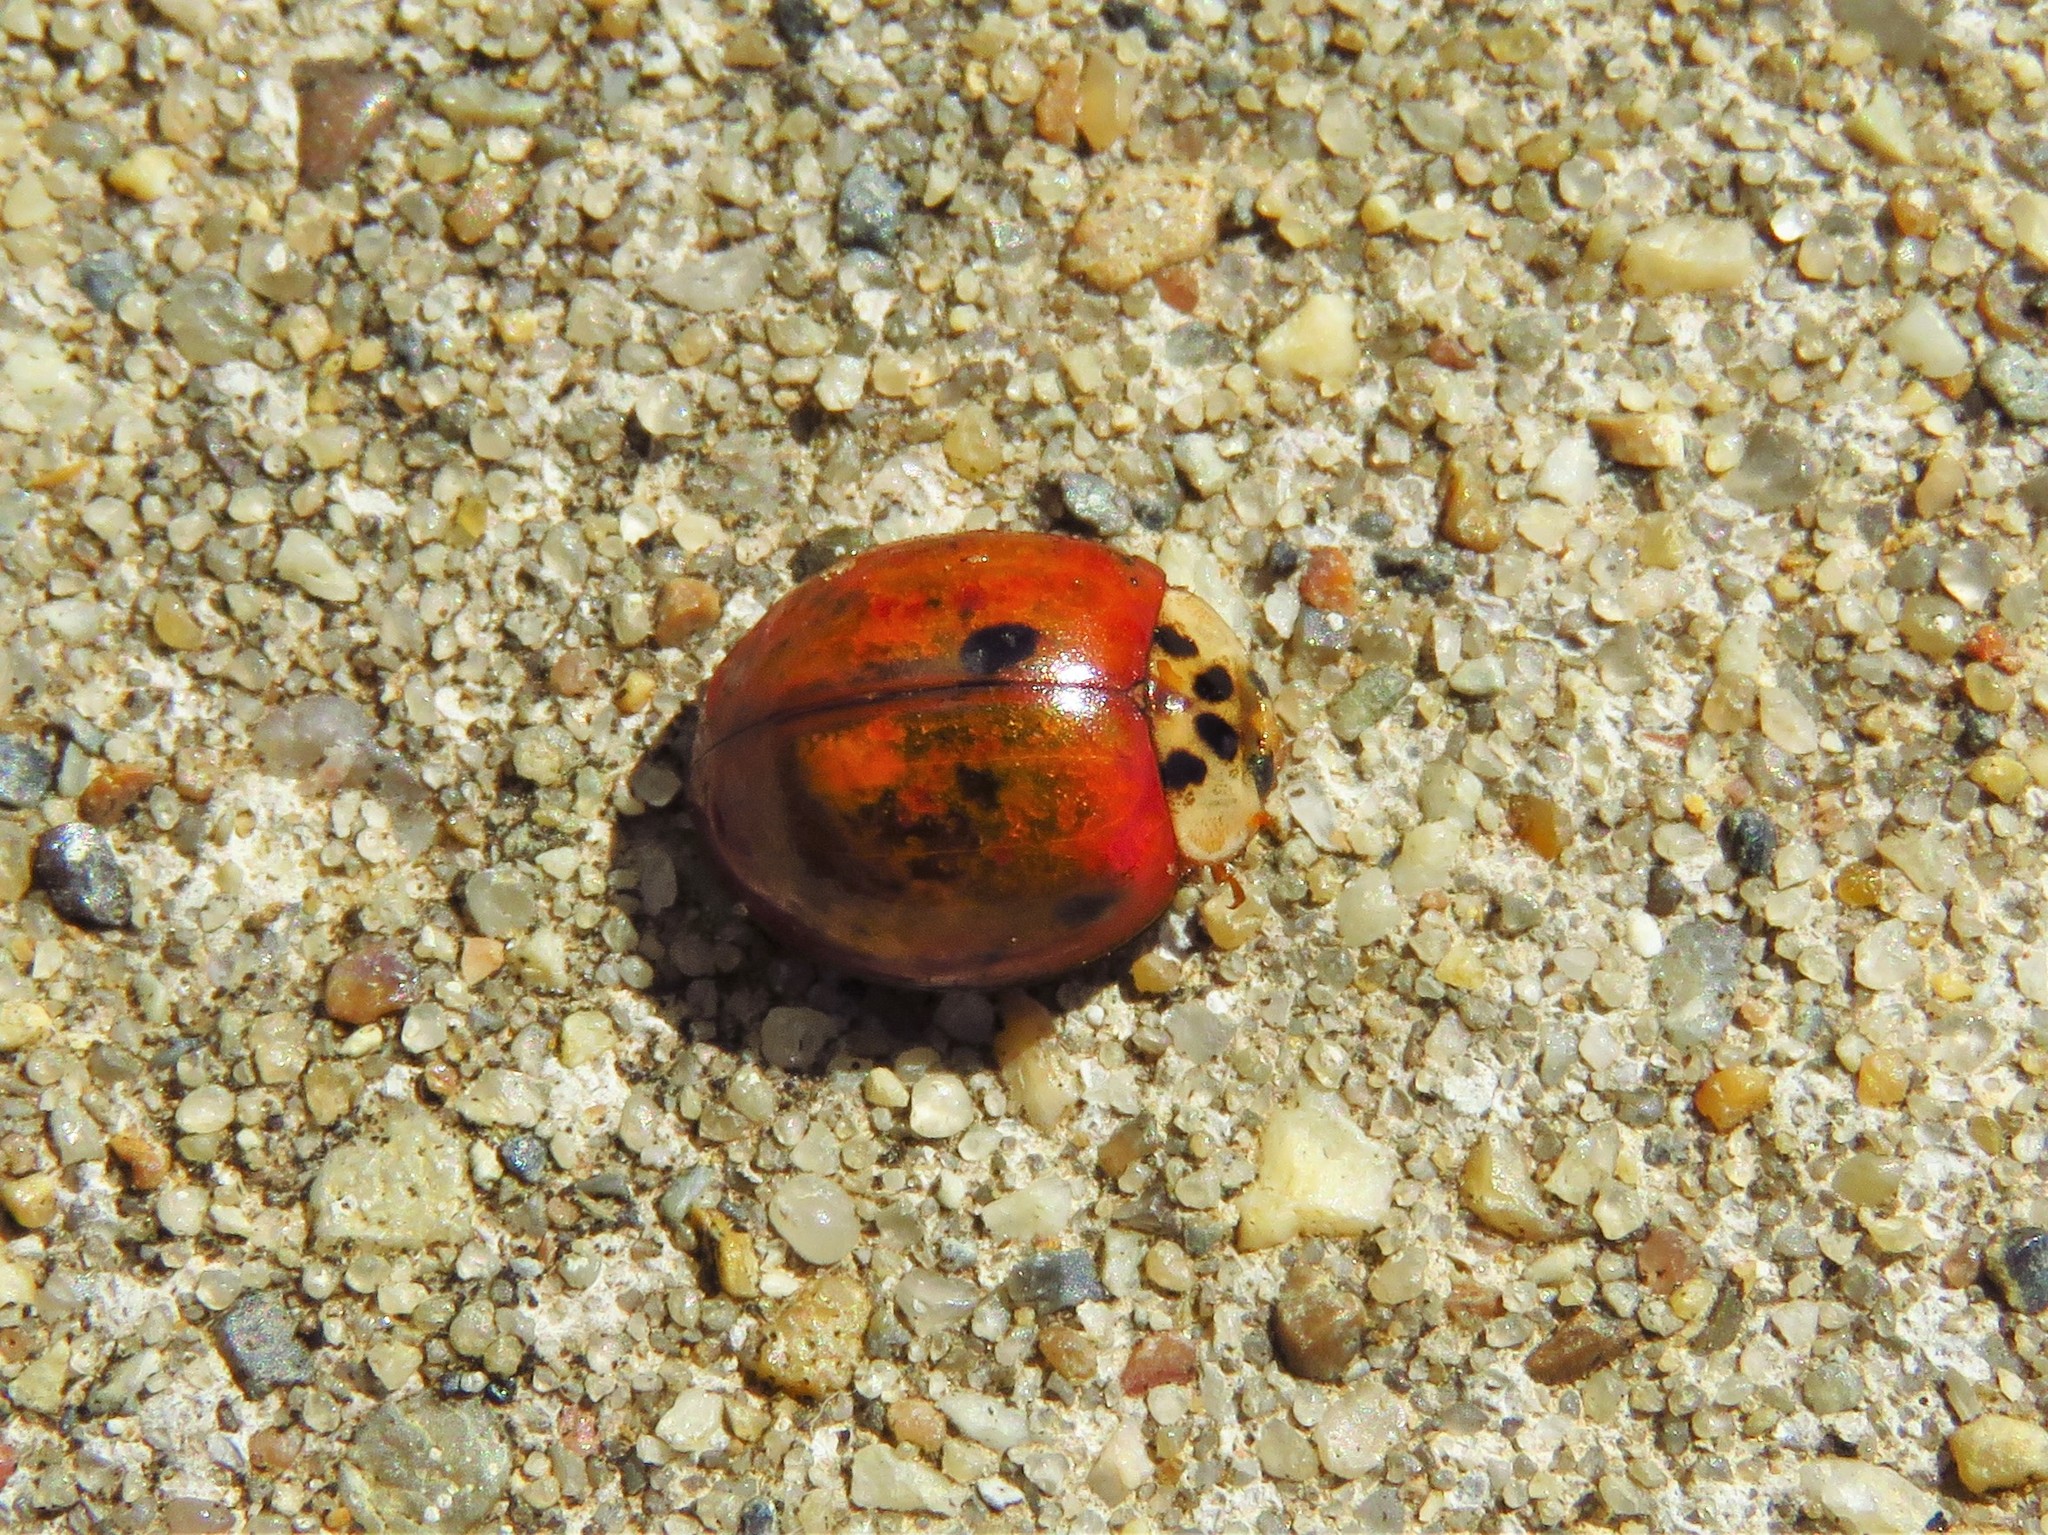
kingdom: Animalia
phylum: Arthropoda
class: Insecta
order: Coleoptera
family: Coccinellidae
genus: Harmonia
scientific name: Harmonia axyridis
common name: Harlequin ladybird
